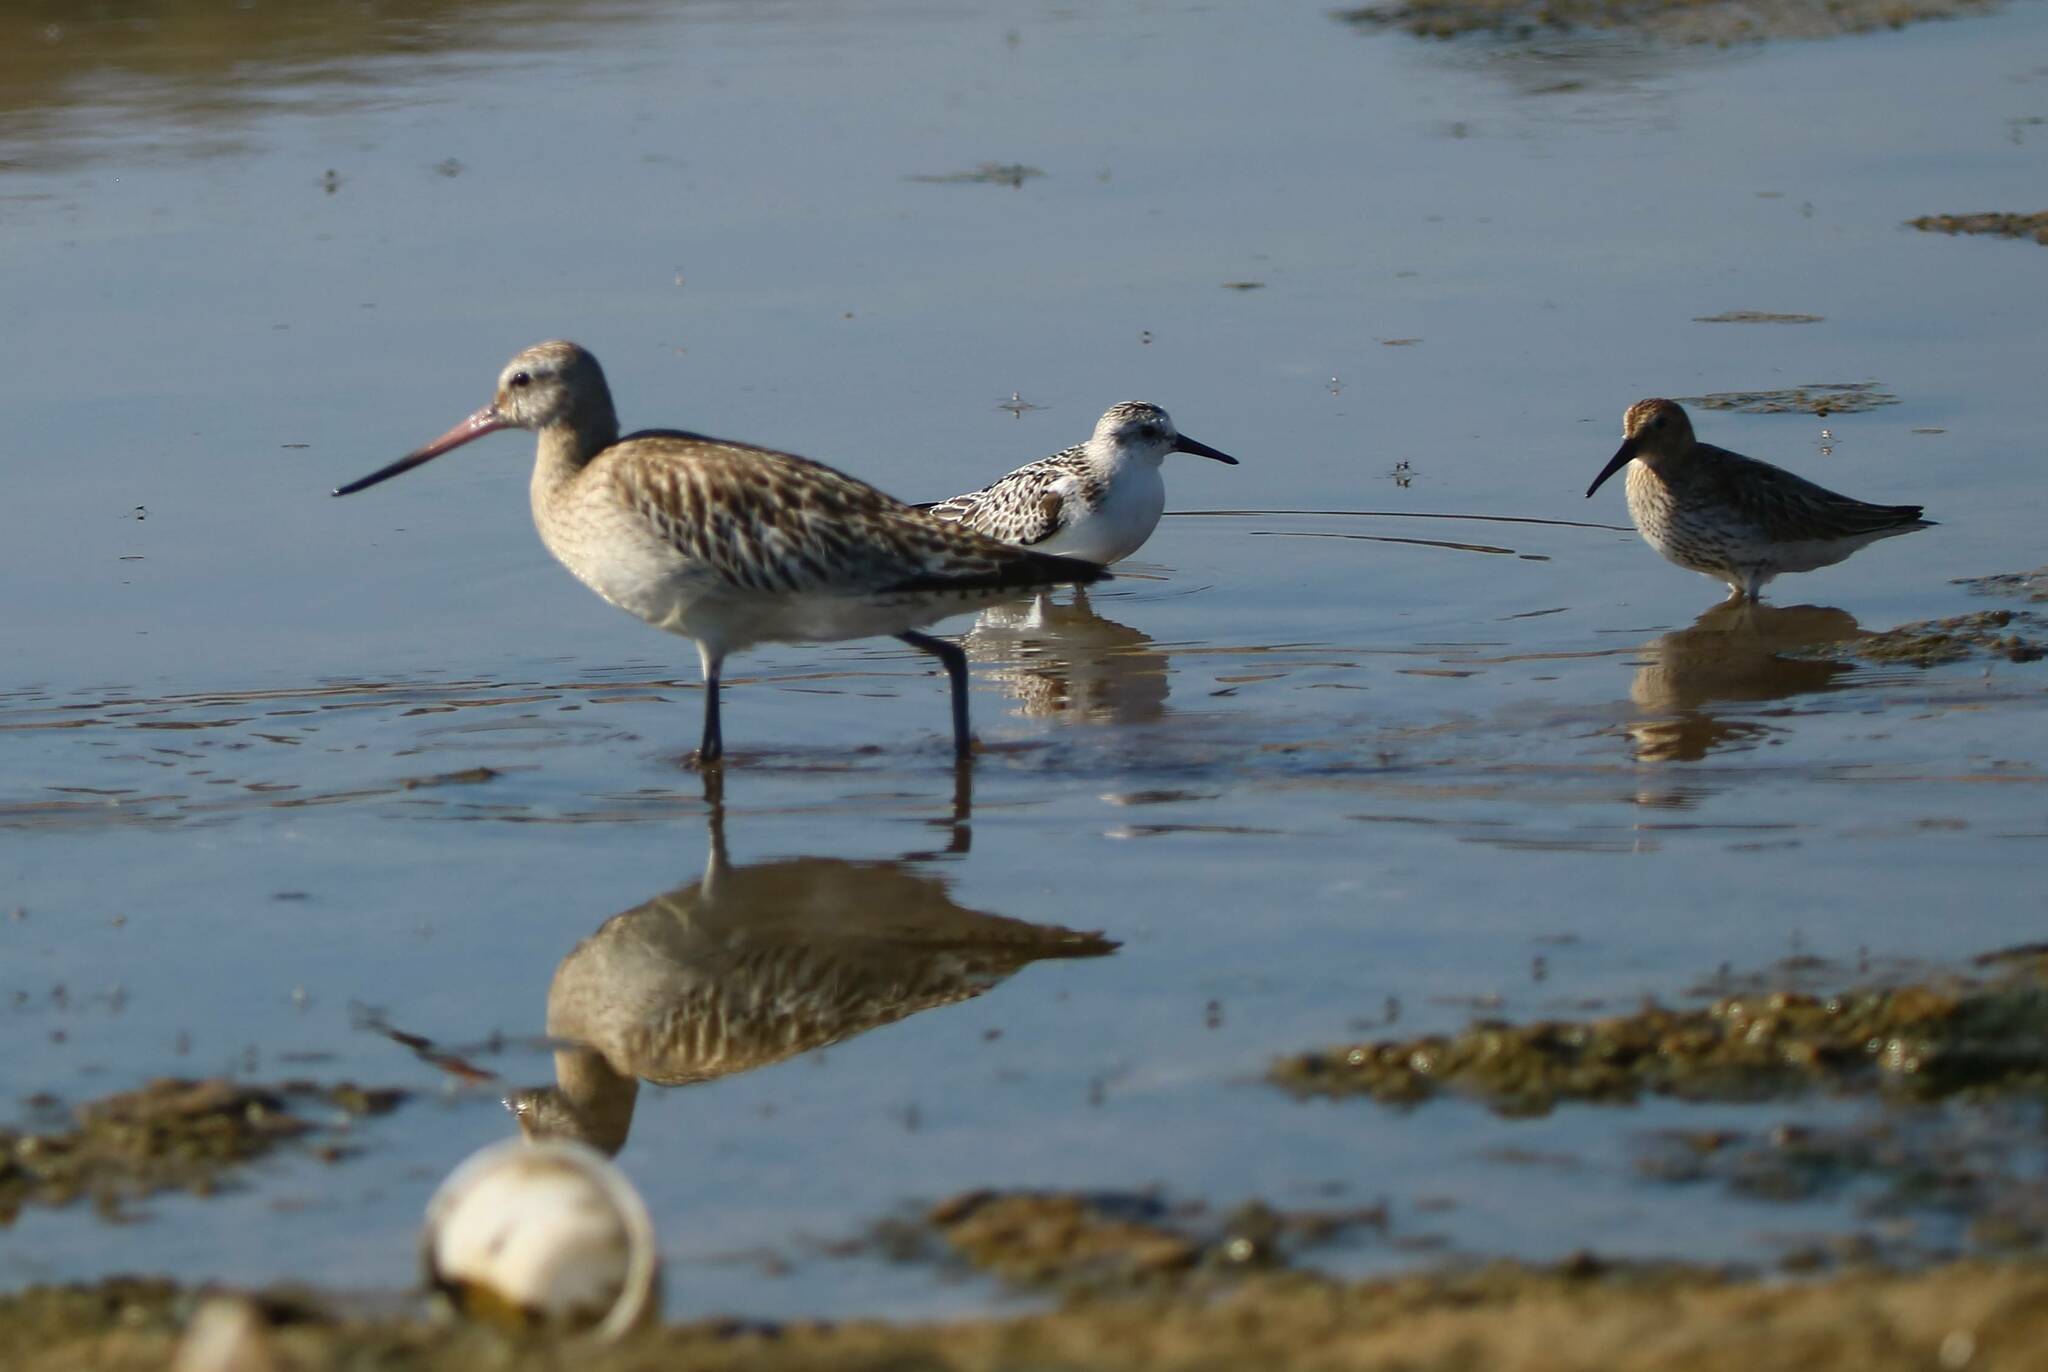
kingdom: Animalia
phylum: Chordata
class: Aves
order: Charadriiformes
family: Scolopacidae
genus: Limosa
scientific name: Limosa lapponica
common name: Bar-tailed godwit
